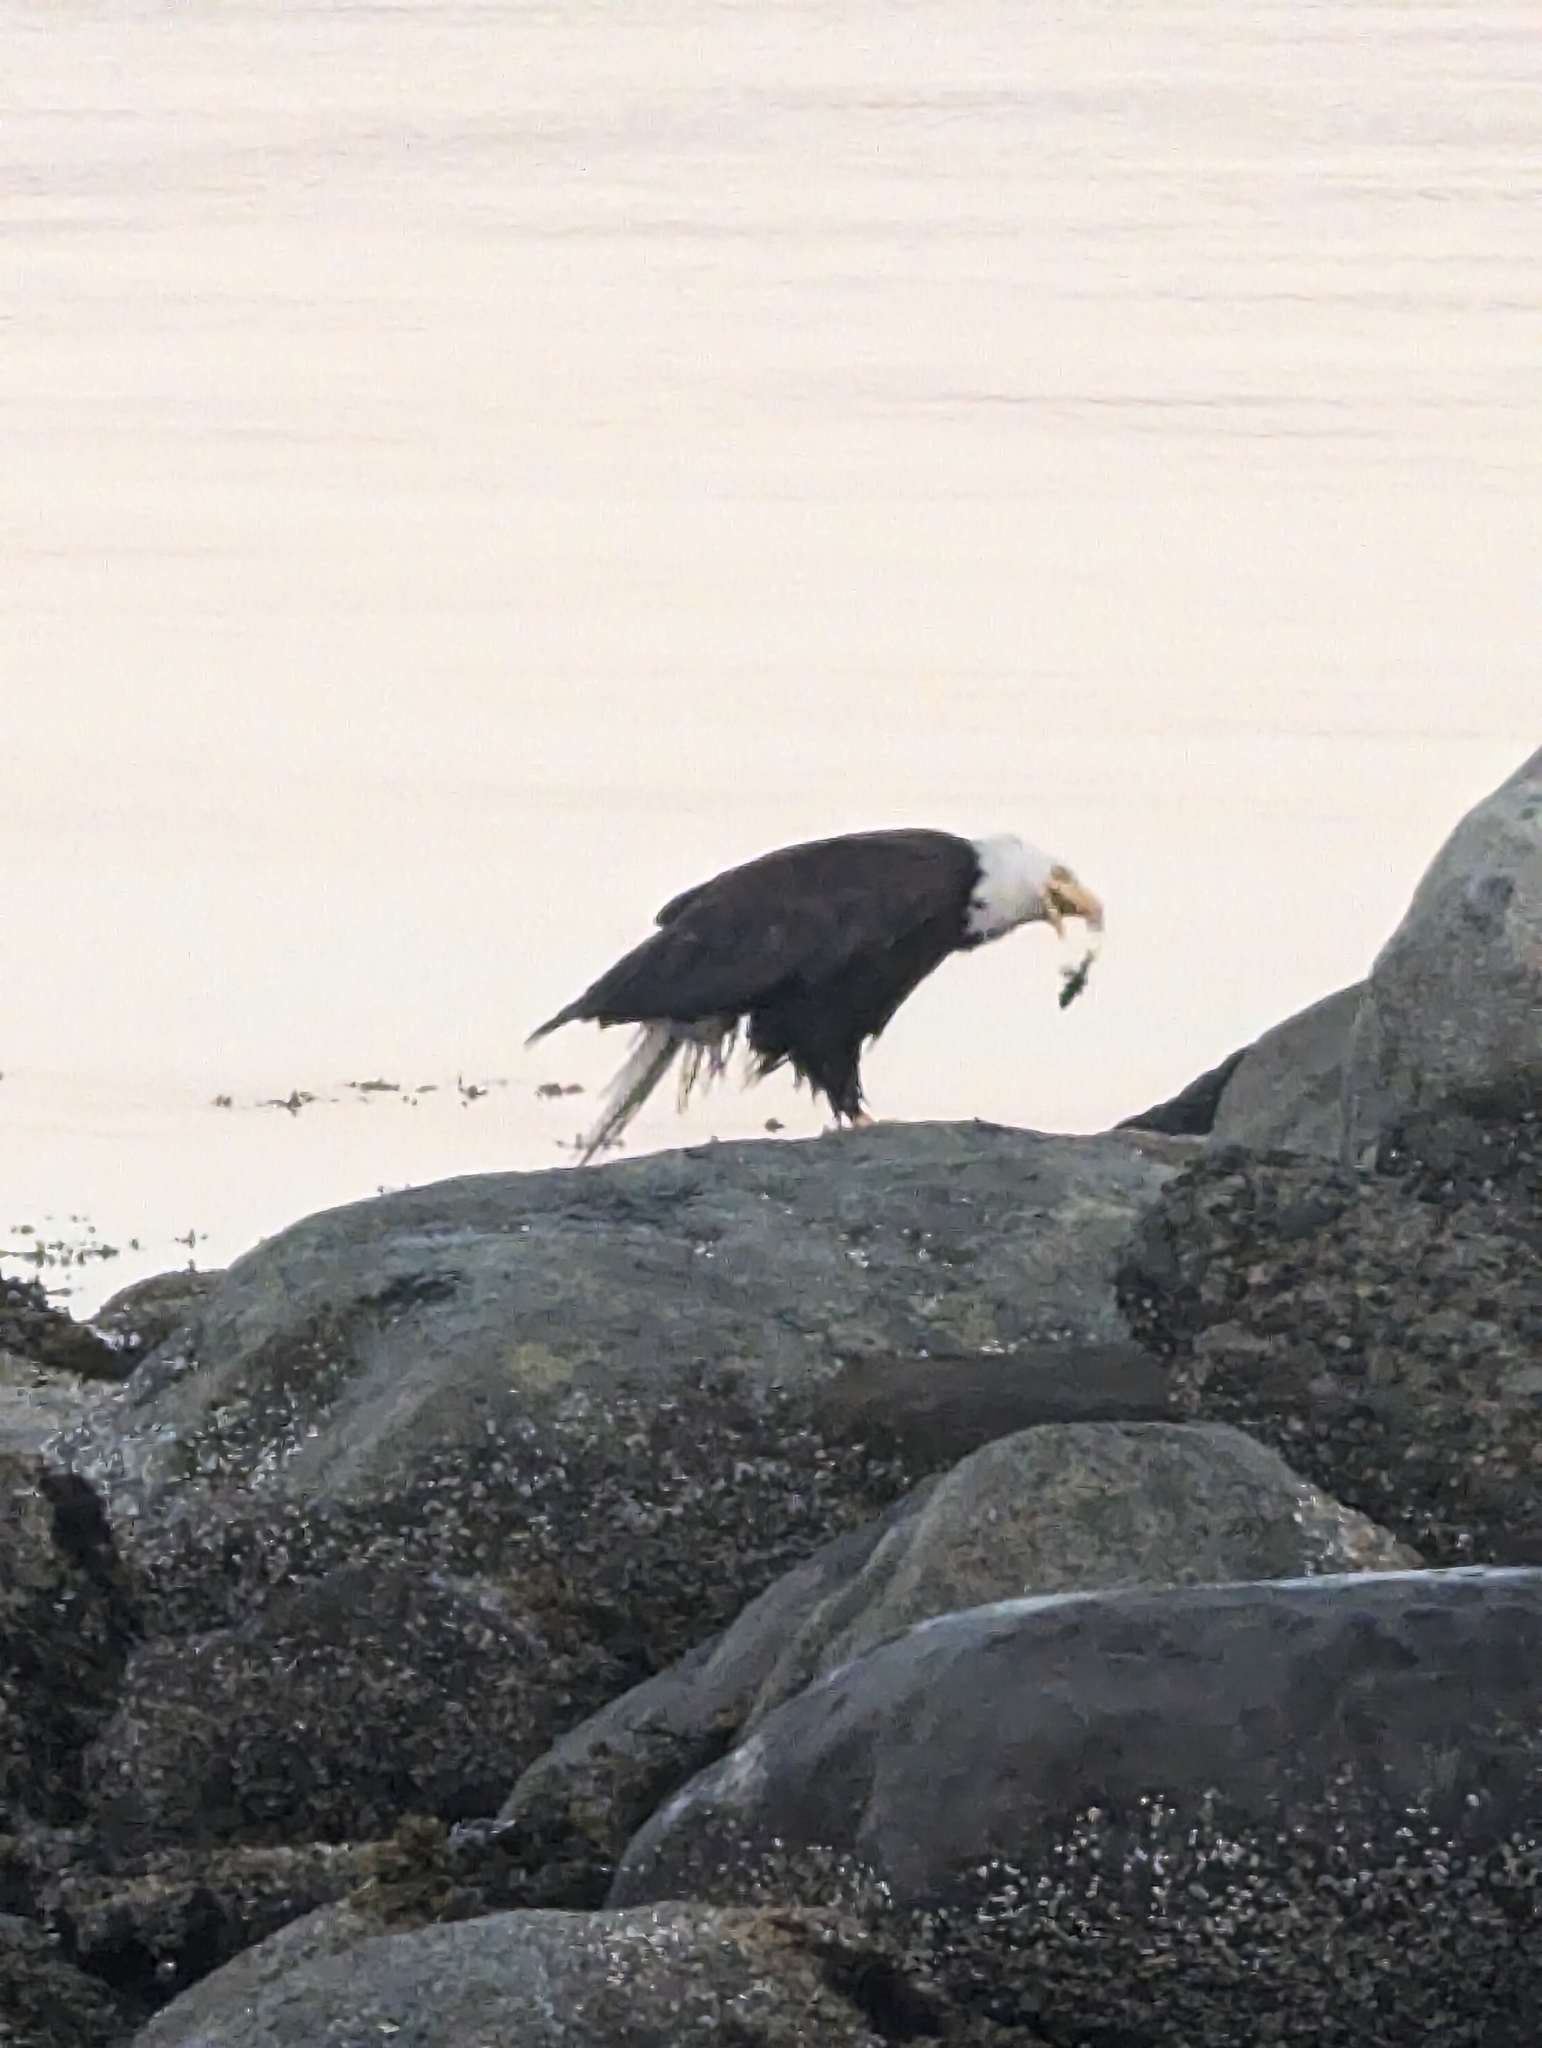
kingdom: Animalia
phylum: Chordata
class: Aves
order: Accipitriformes
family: Accipitridae
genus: Haliaeetus
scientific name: Haliaeetus leucocephalus
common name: Bald eagle
